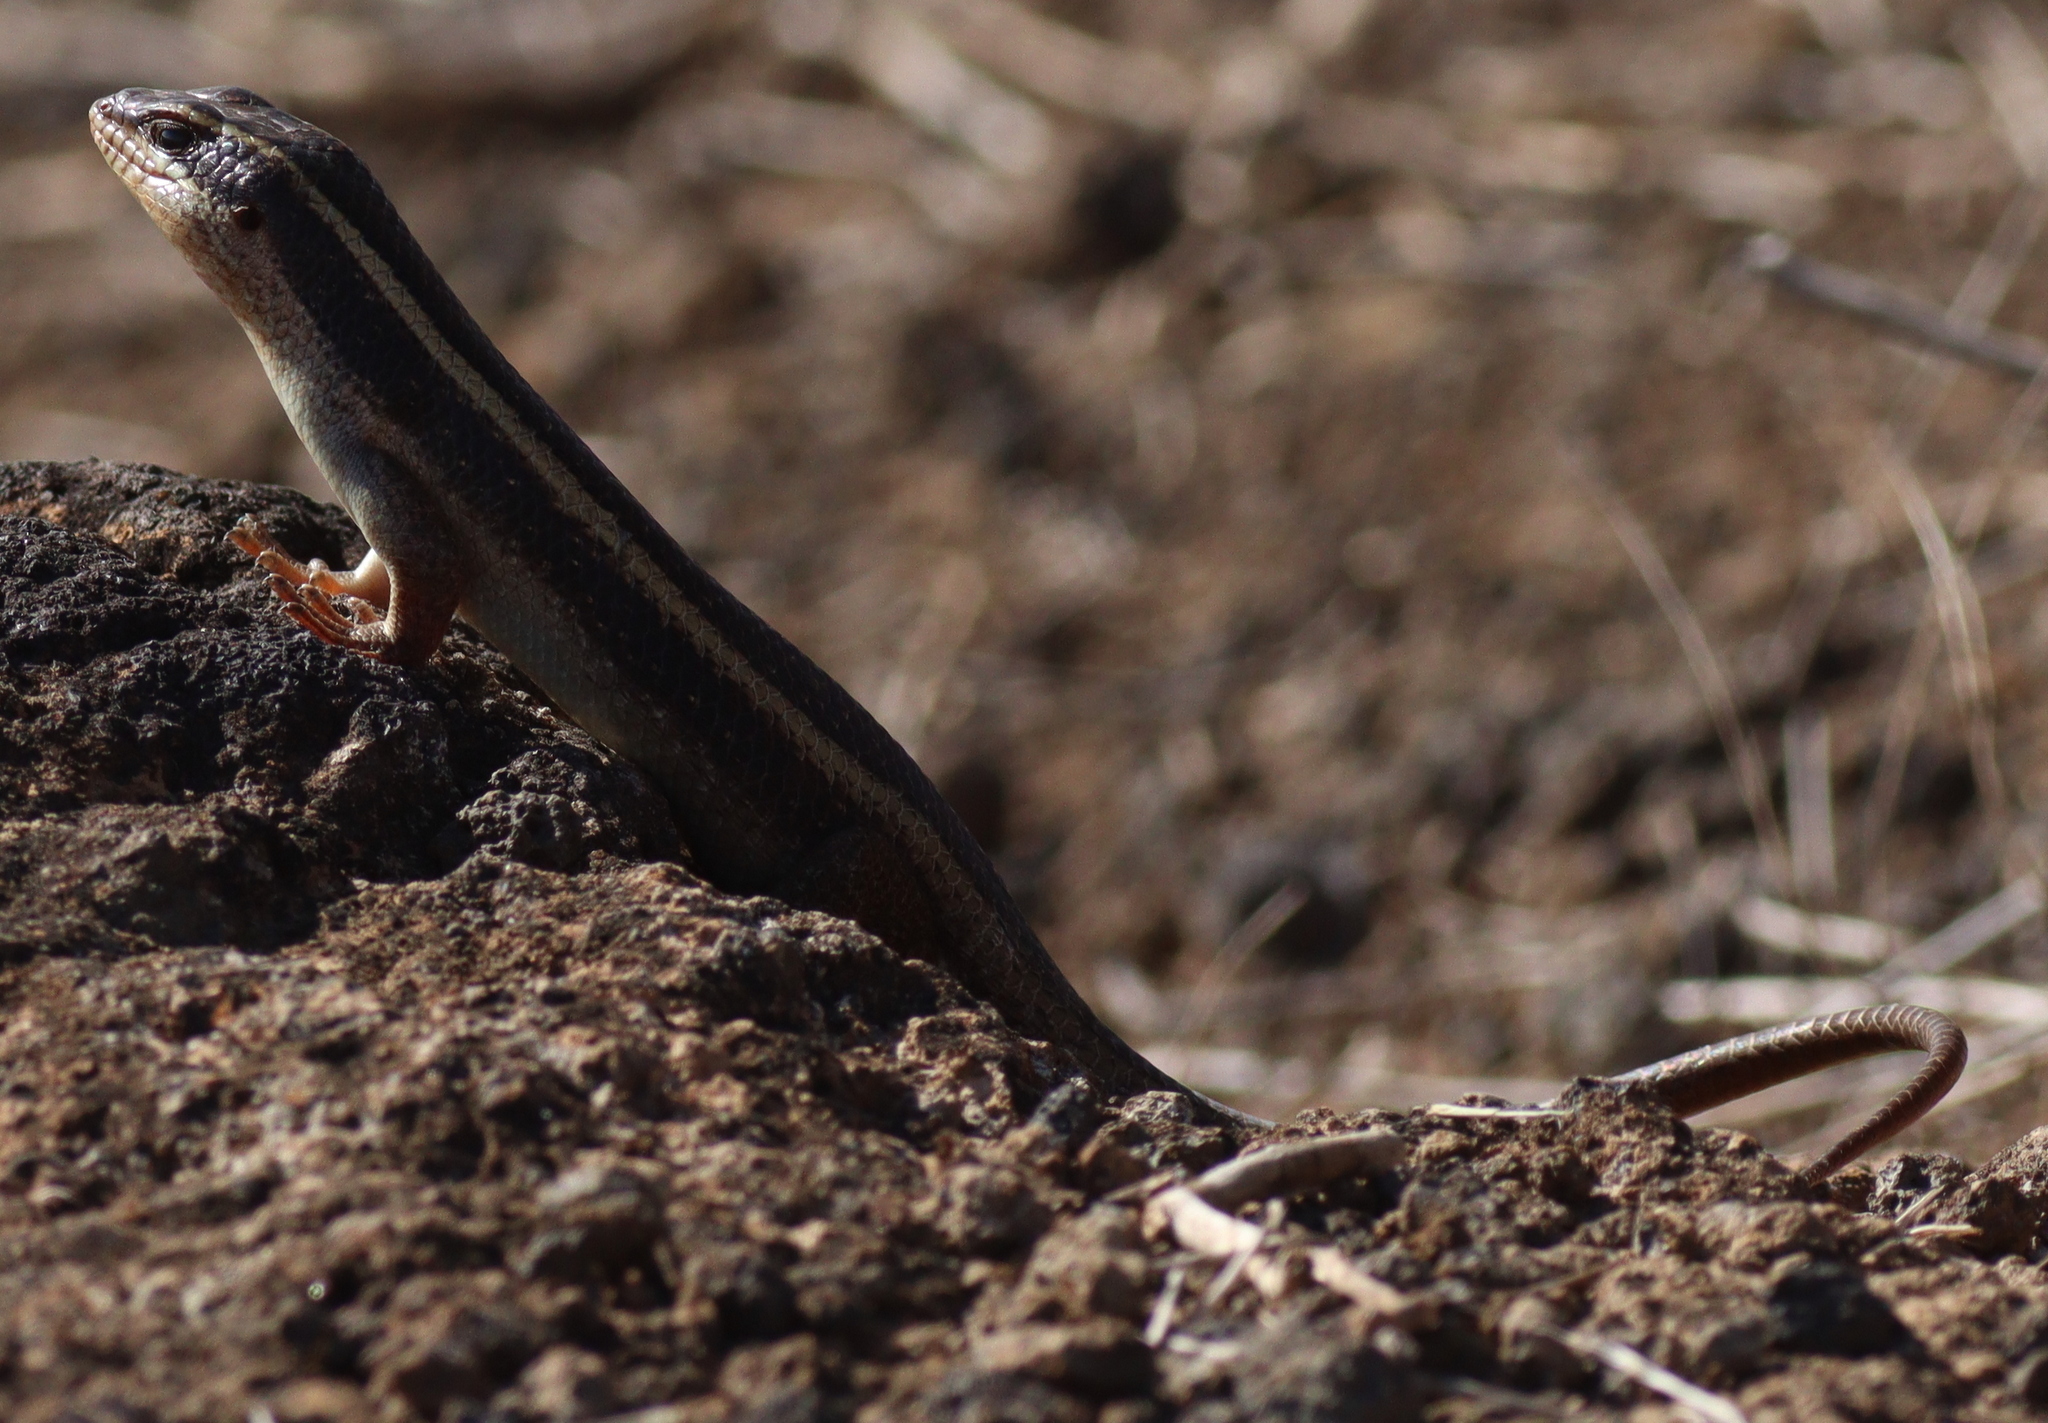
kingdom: Animalia
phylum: Chordata
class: Squamata
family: Scincidae
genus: Trachylepis
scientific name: Trachylepis striata
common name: African striped mabuya
